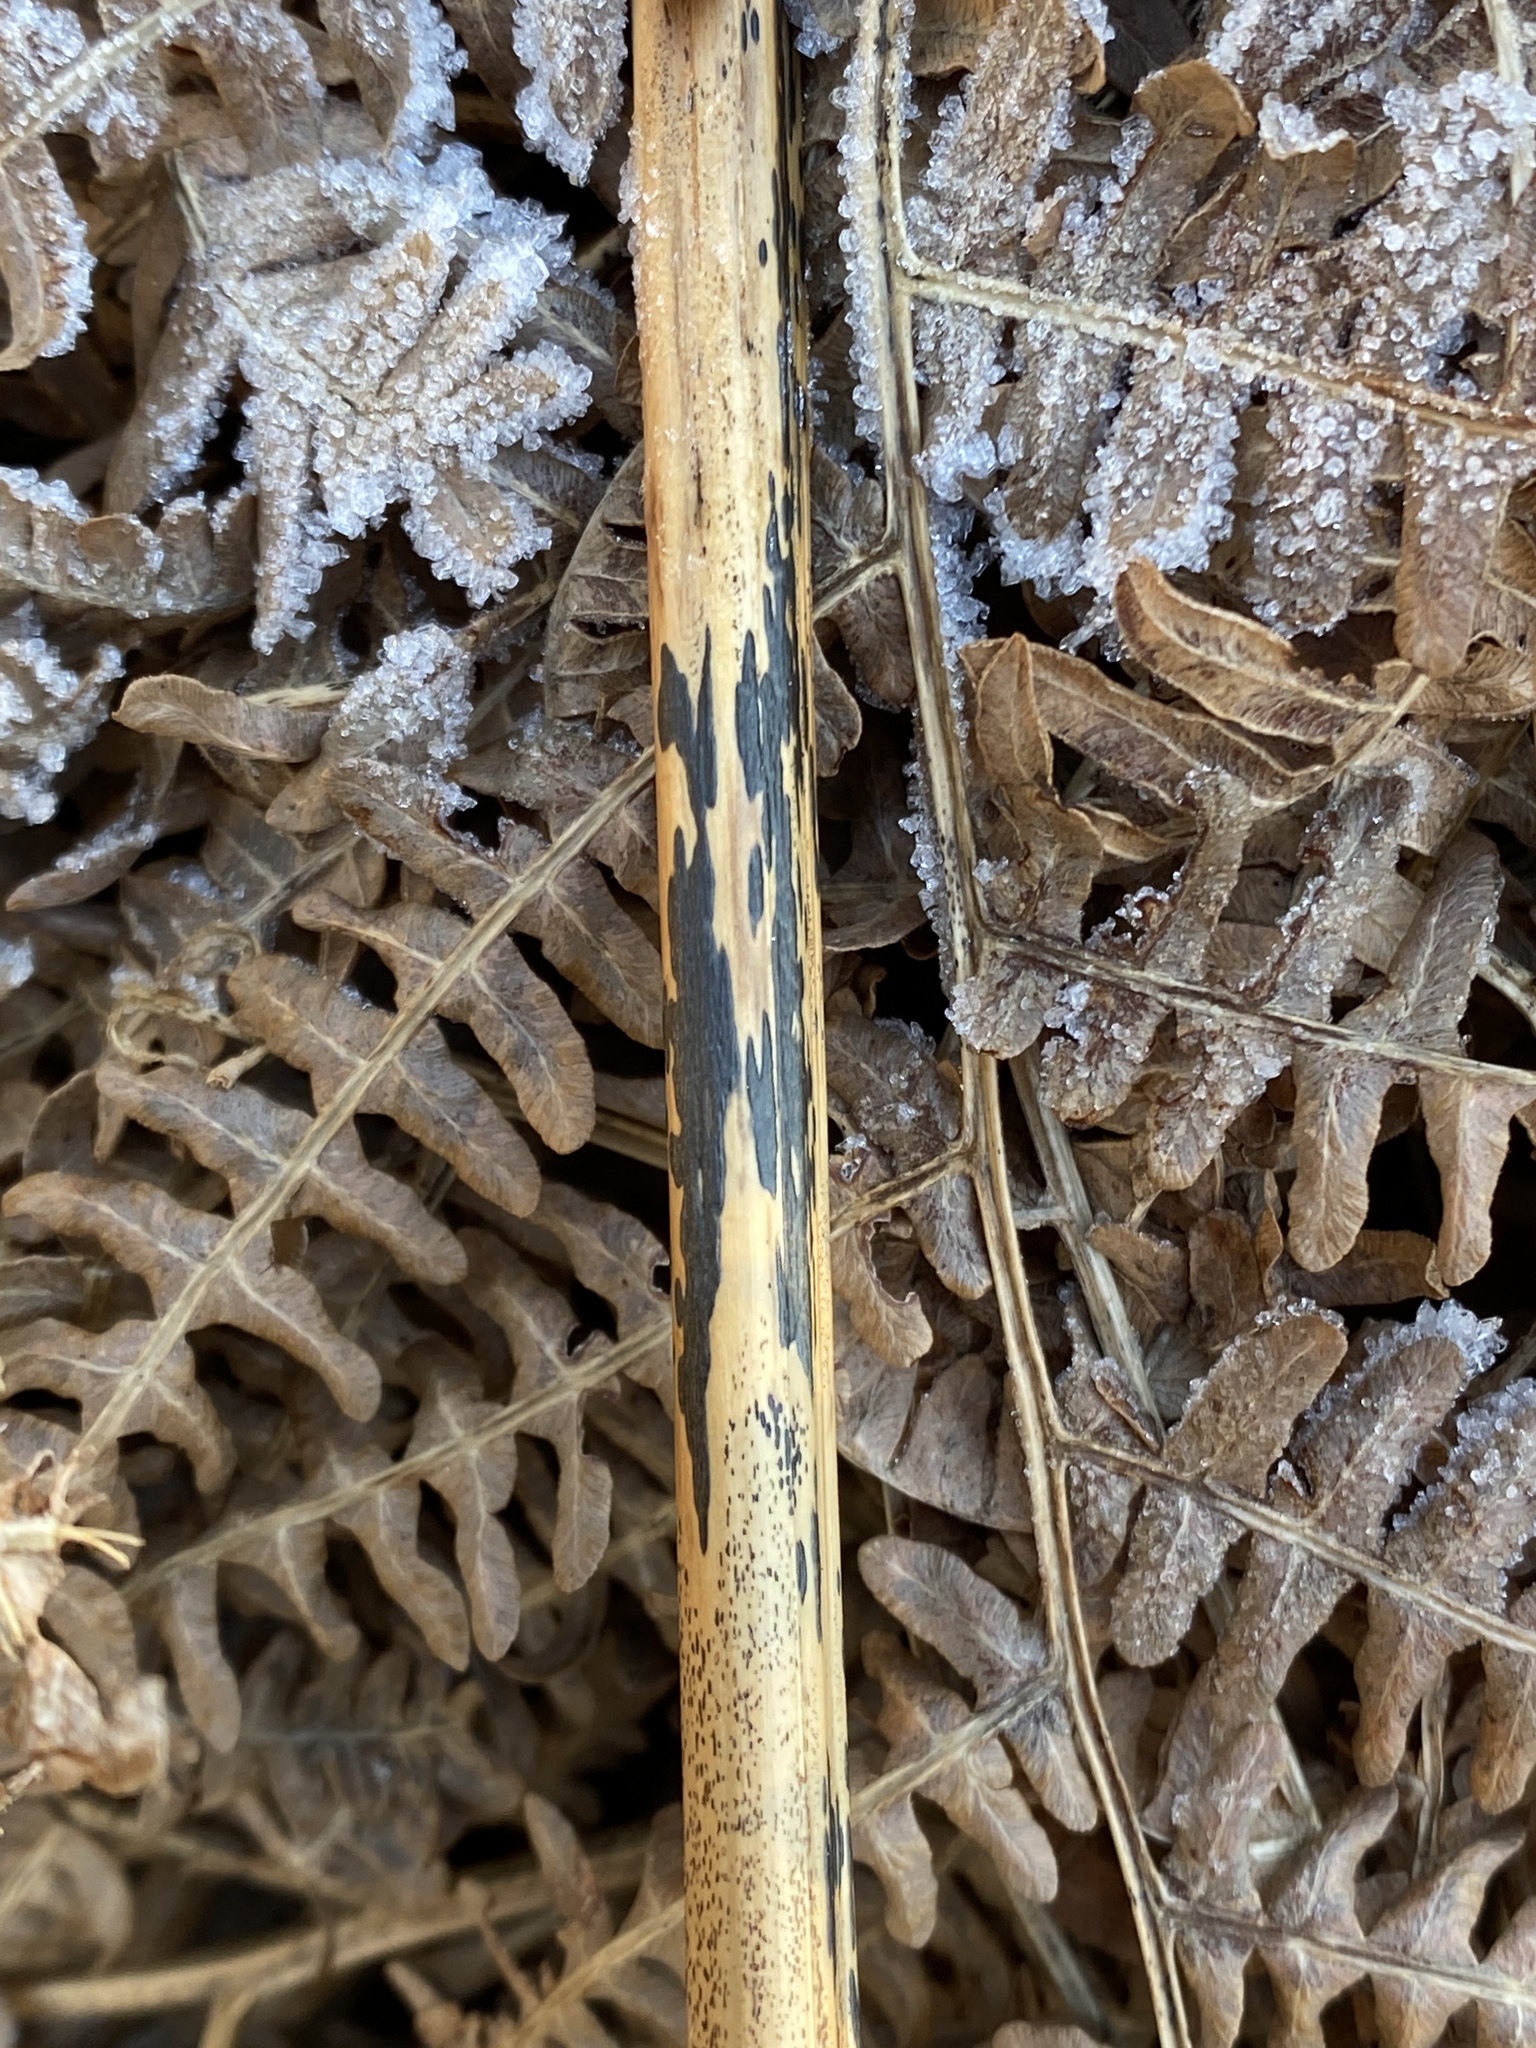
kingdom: Fungi
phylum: Ascomycota
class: Dothideomycetes
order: Pleosporales
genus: Rhopographus
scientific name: Rhopographus filicinus
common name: Bracken map
